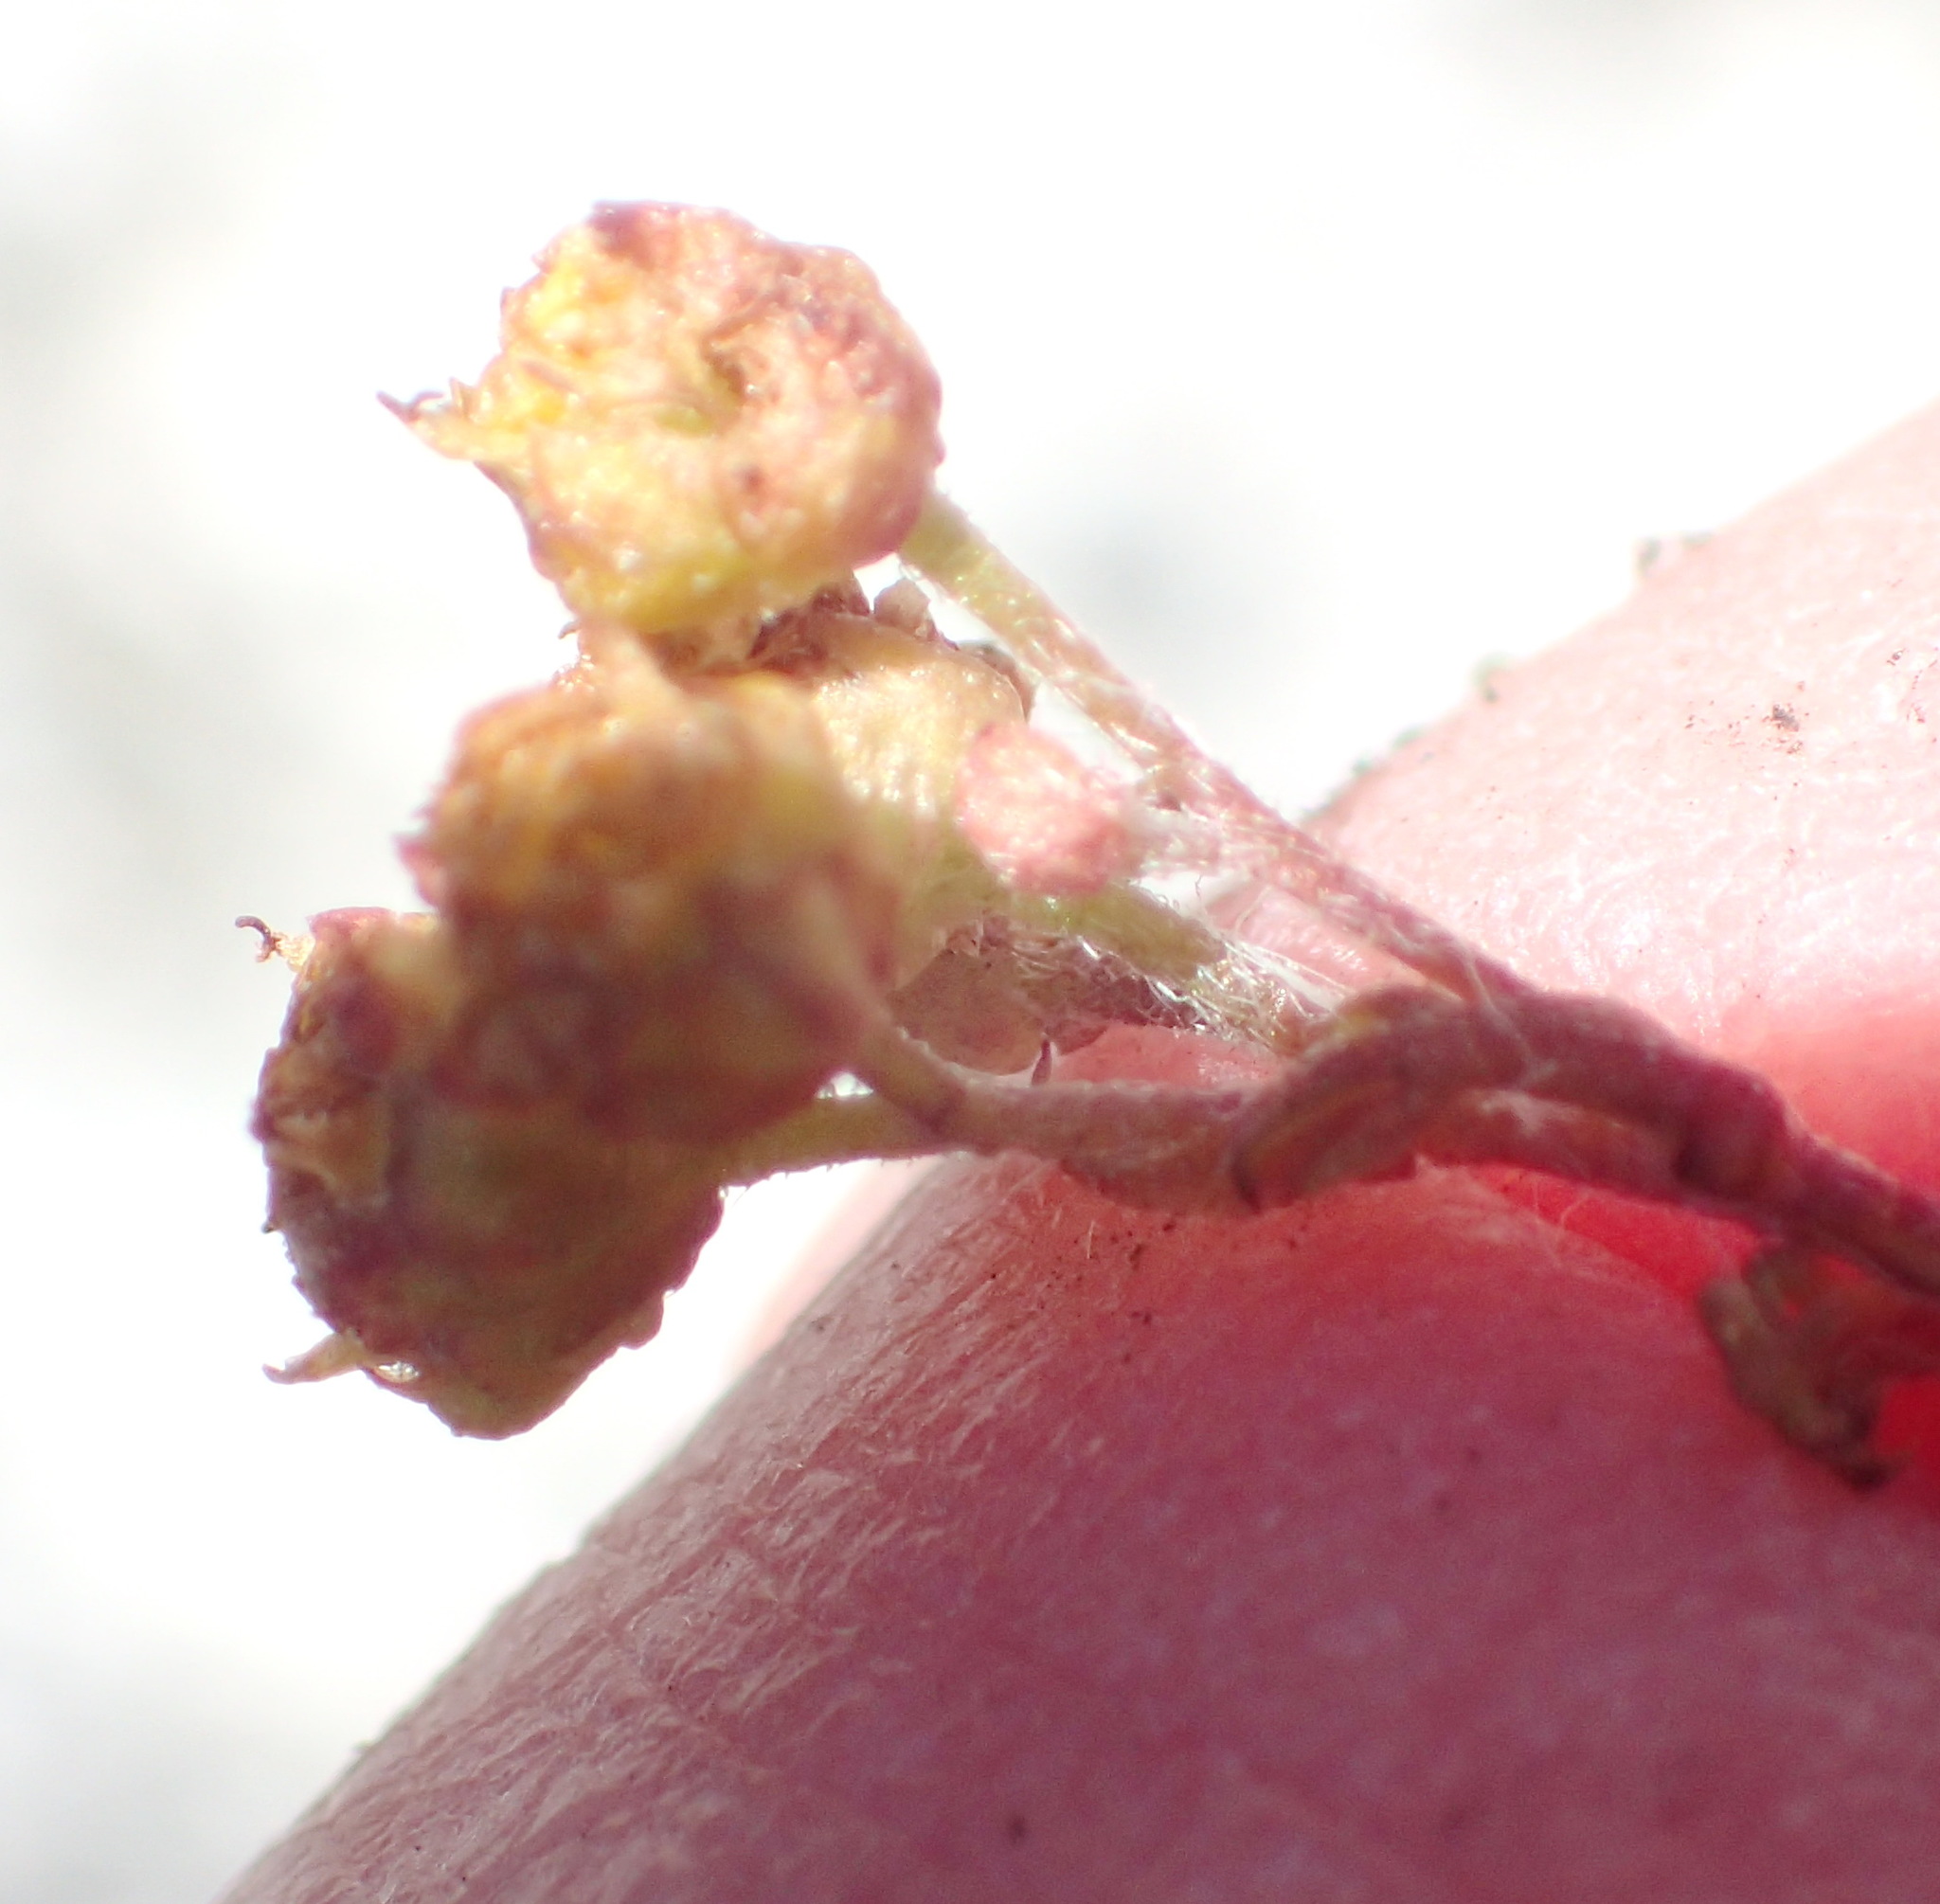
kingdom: Plantae
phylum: Tracheophyta
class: Magnoliopsida
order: Asterales
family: Asteraceae
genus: Hippia
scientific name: Hippia pilosa
